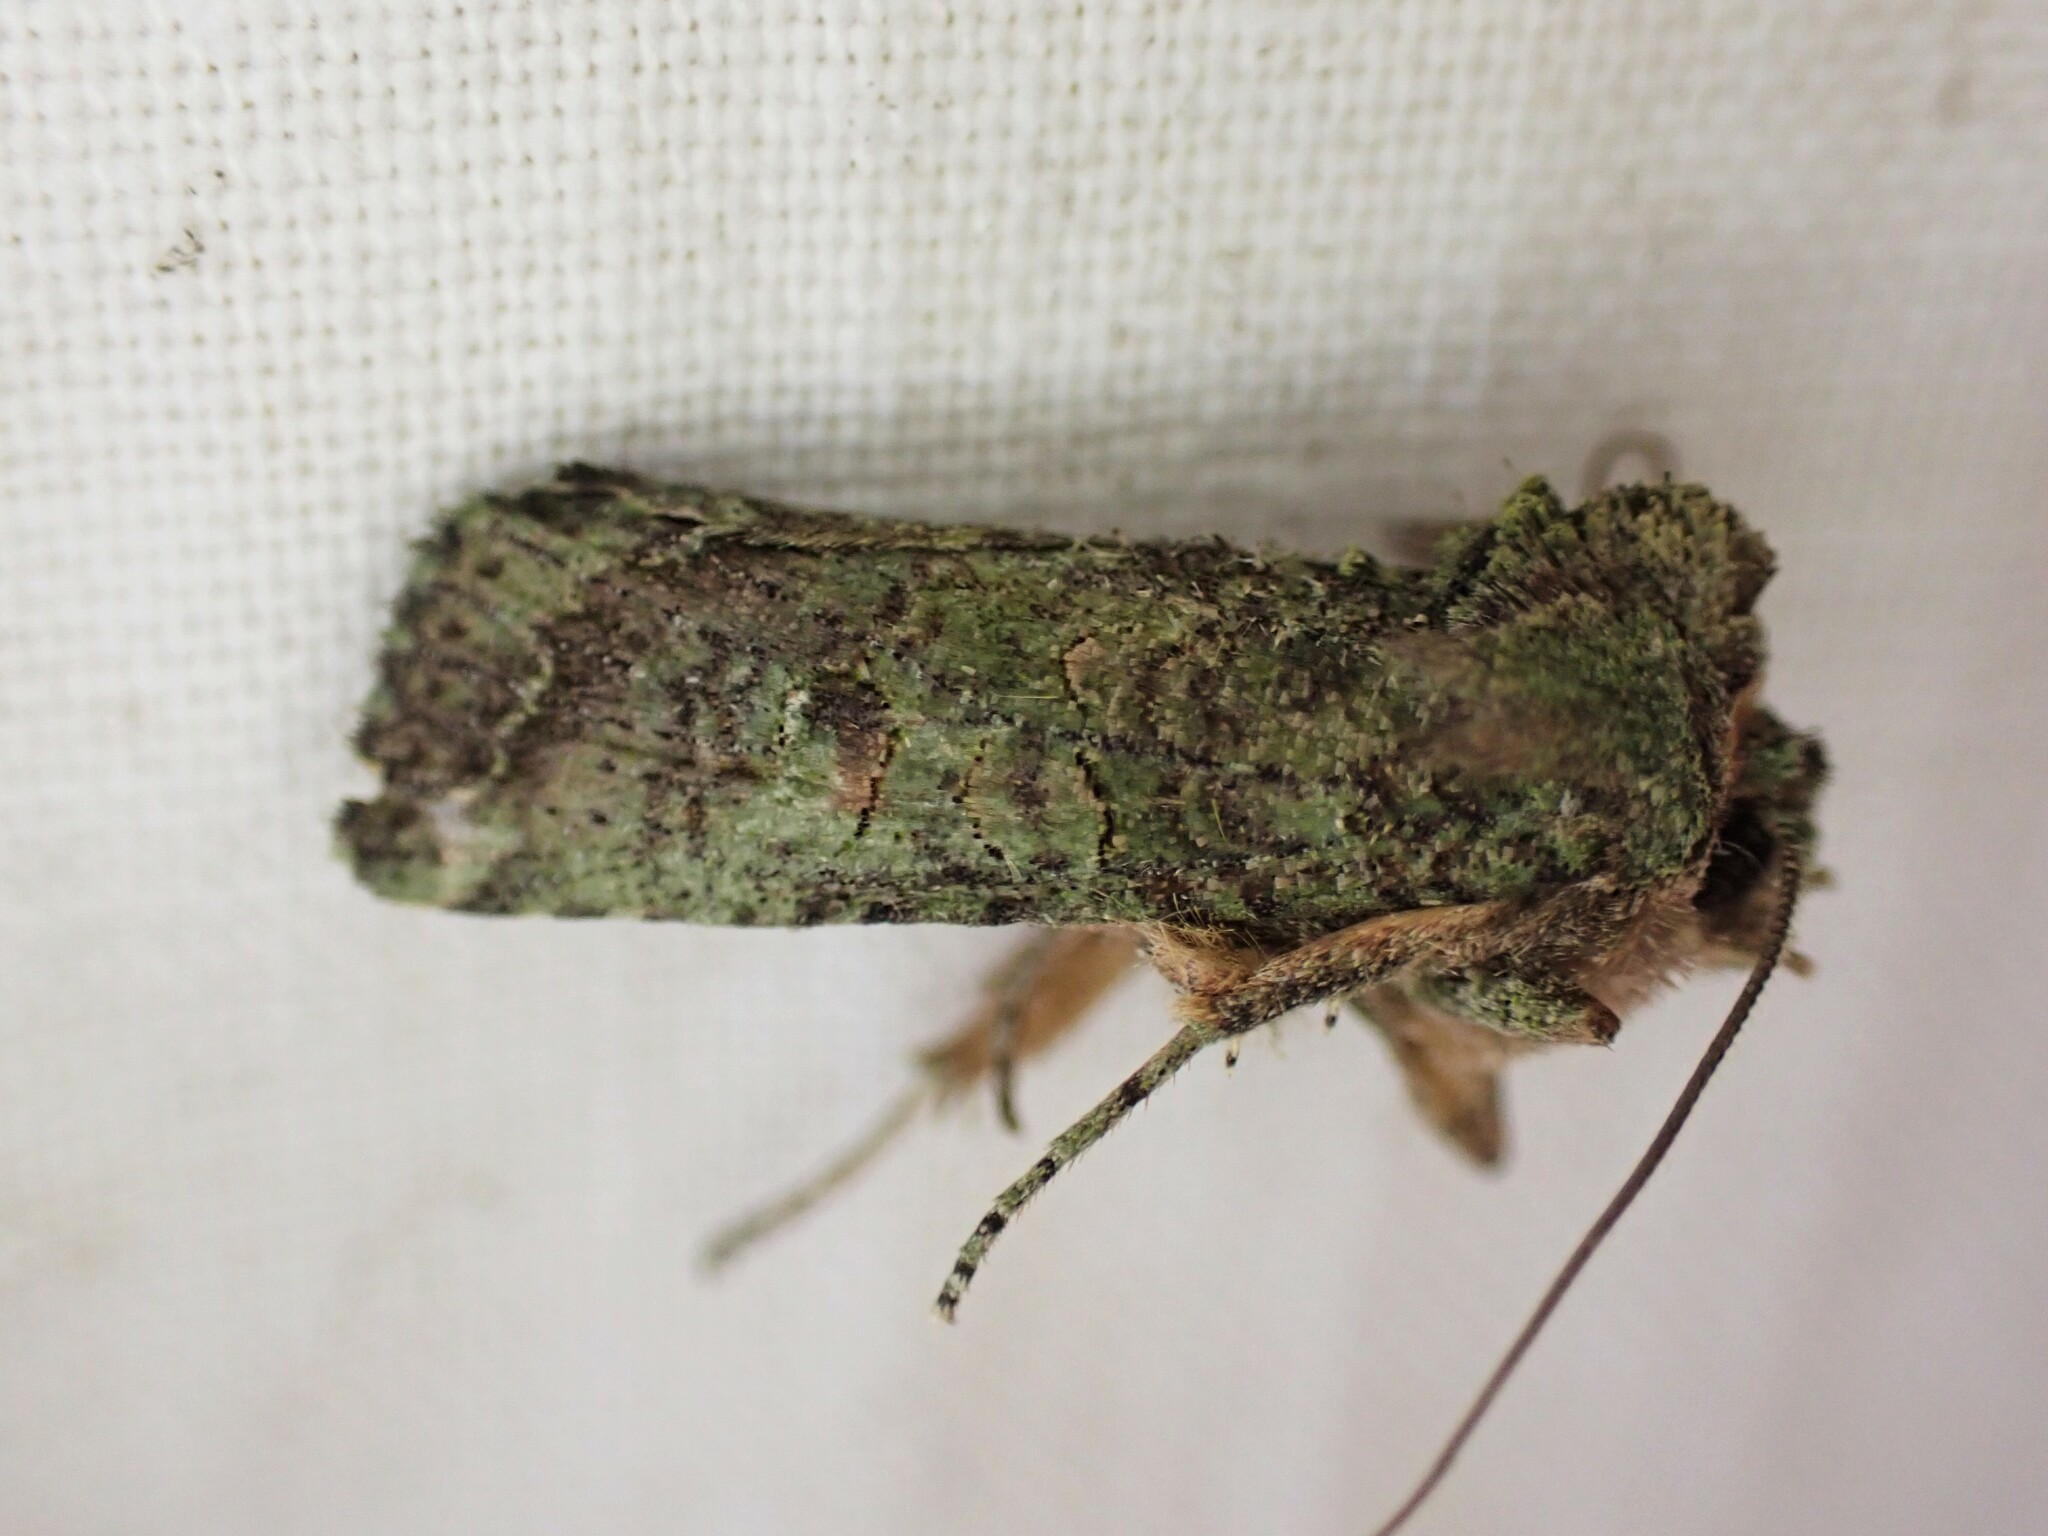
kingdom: Animalia
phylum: Arthropoda
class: Insecta
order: Lepidoptera
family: Noctuidae
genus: Meterana
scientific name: Meterana levis
